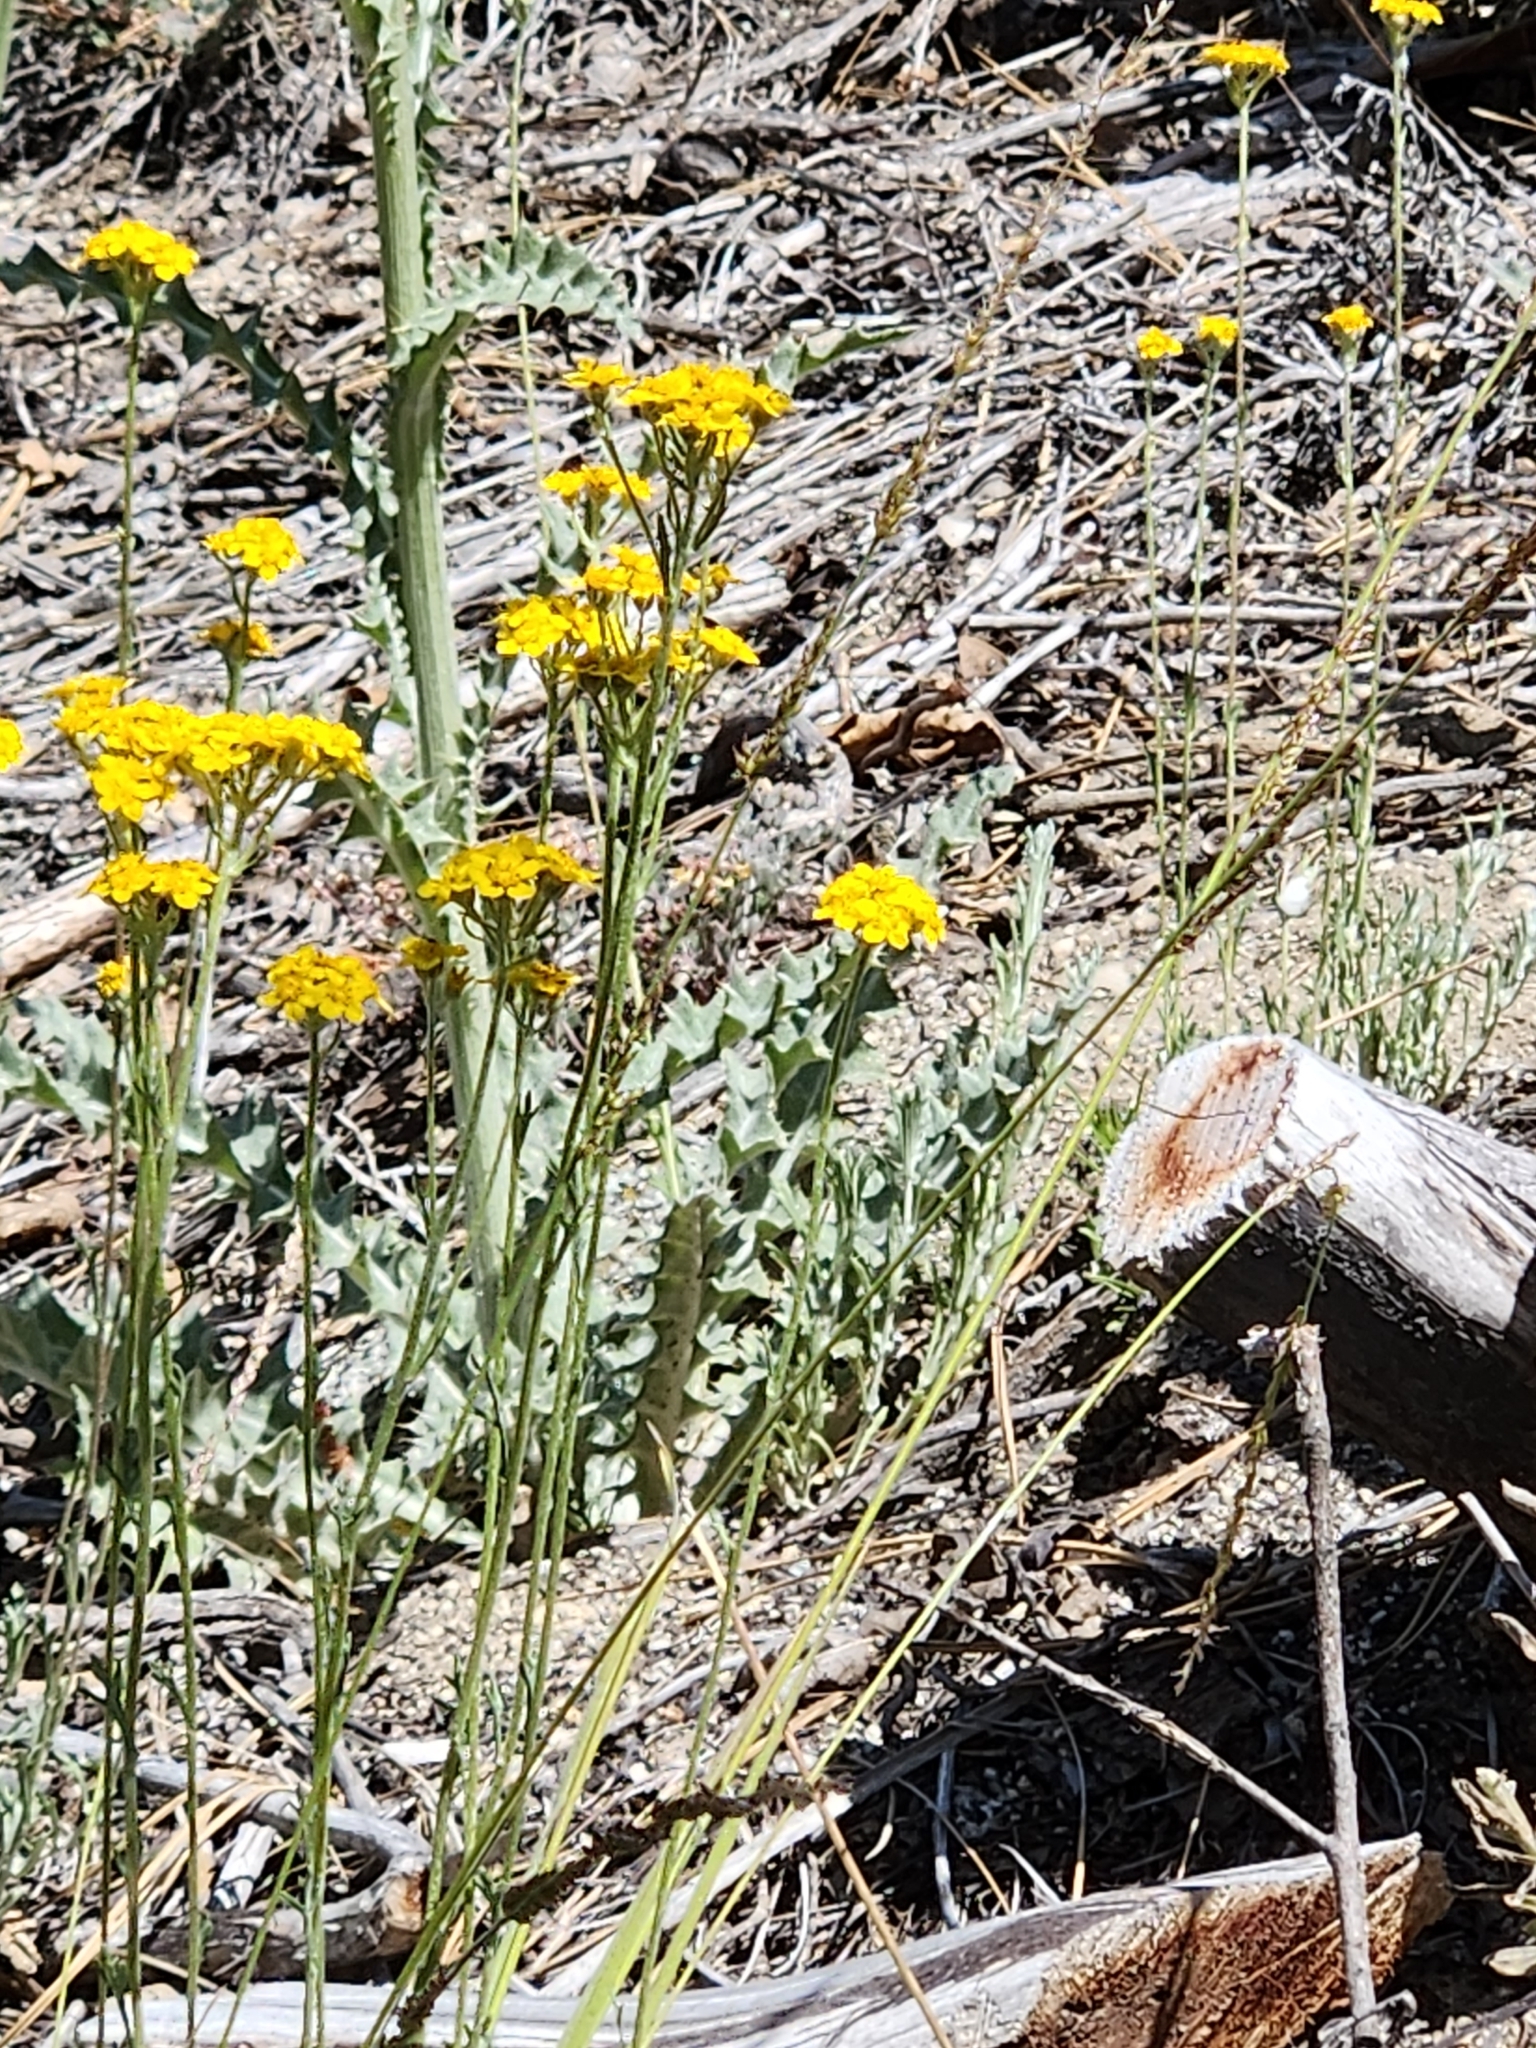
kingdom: Plantae
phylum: Tracheophyta
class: Magnoliopsida
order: Asterales
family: Asteraceae
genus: Cirsium
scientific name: Cirsium occidentale
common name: Western thistle
